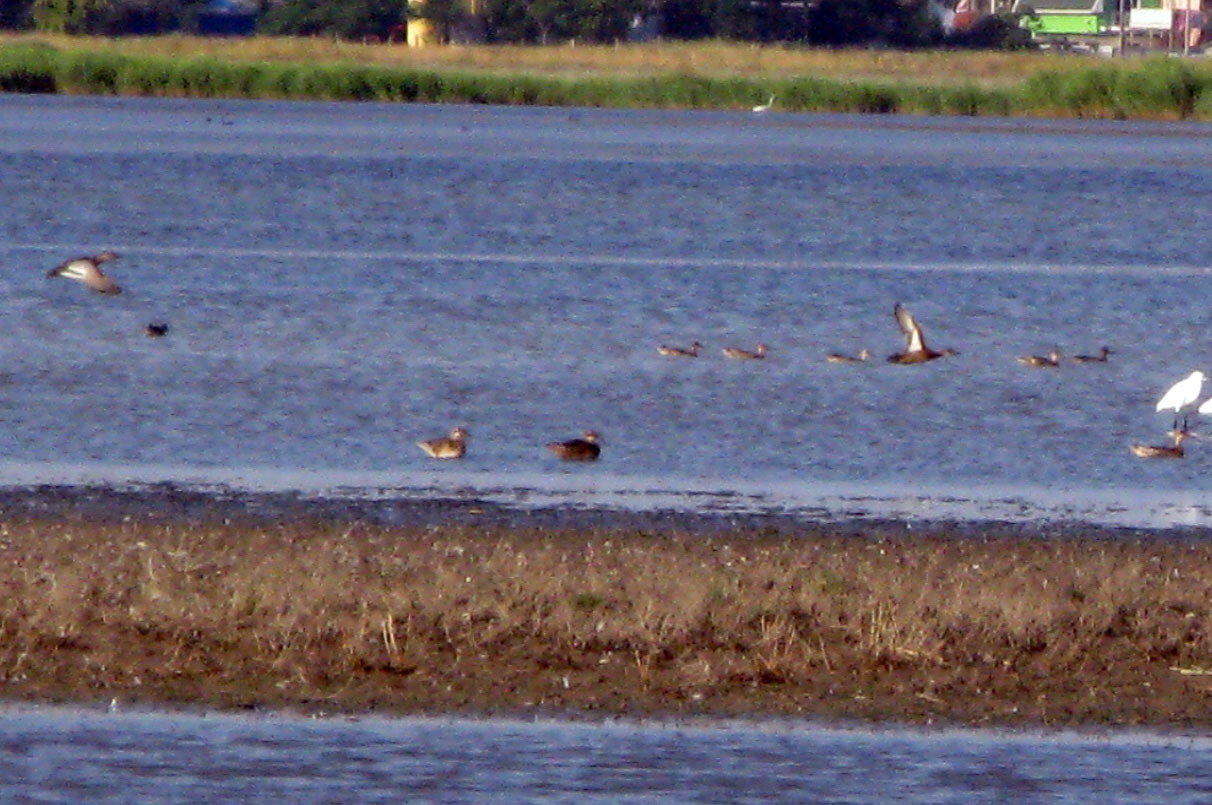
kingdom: Animalia
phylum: Chordata
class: Aves
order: Anseriformes
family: Anatidae
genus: Spatula
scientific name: Spatula querquedula
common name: Garganey
